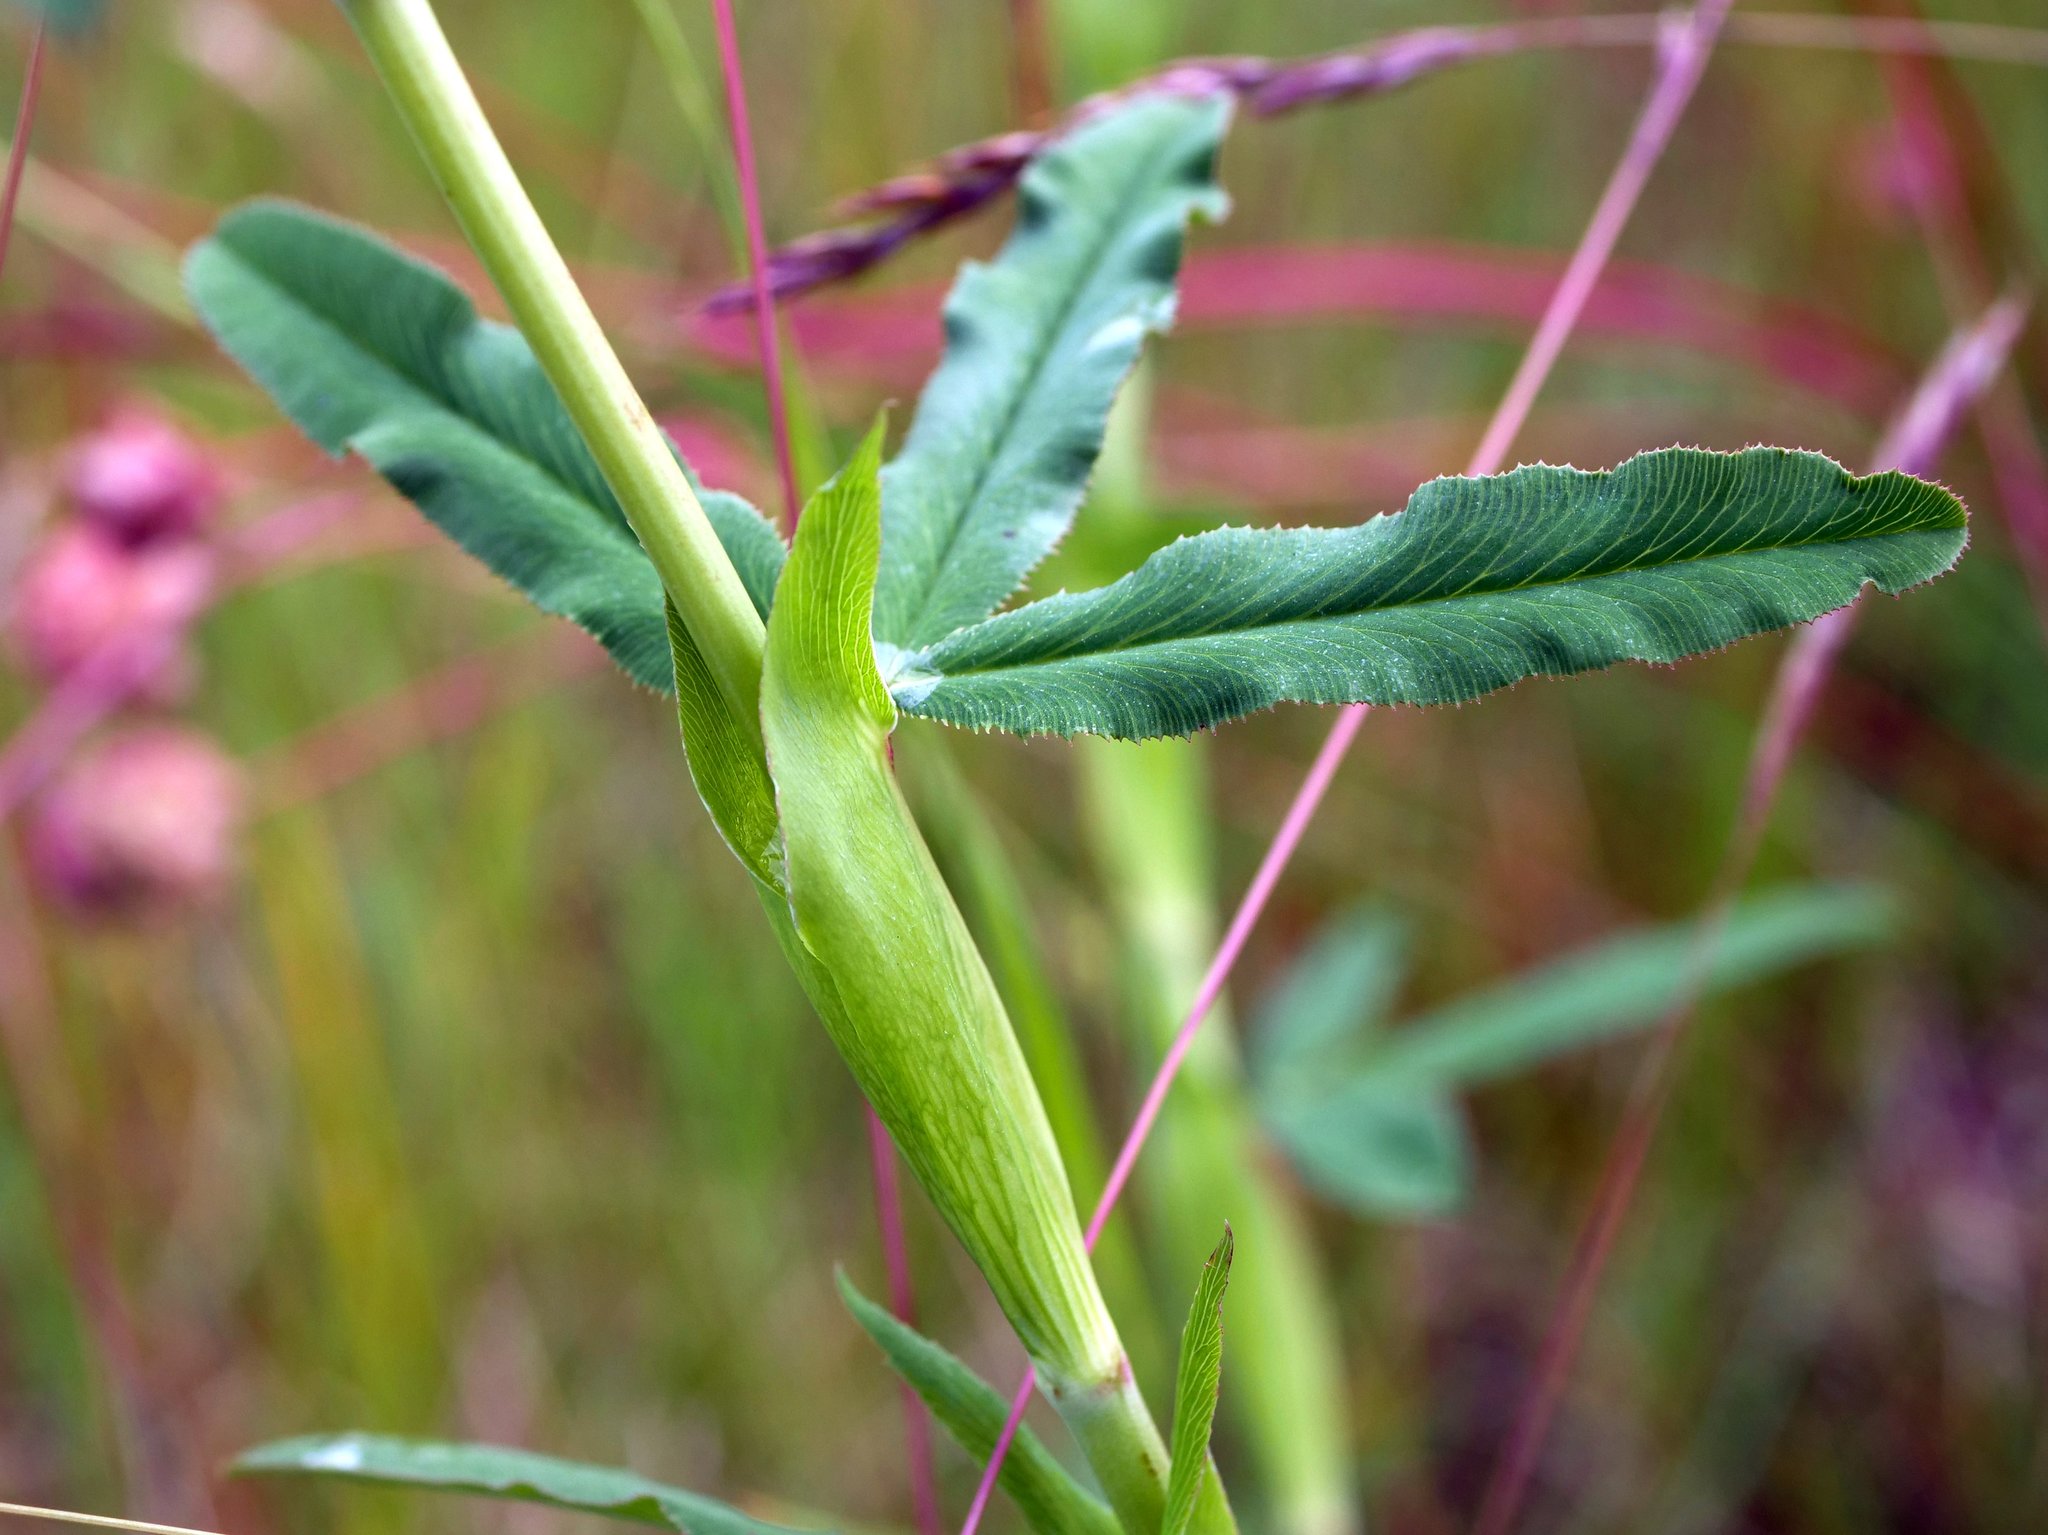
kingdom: Plantae
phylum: Tracheophyta
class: Magnoliopsida
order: Fabales
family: Fabaceae
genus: Trifolium
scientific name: Trifolium rubens
